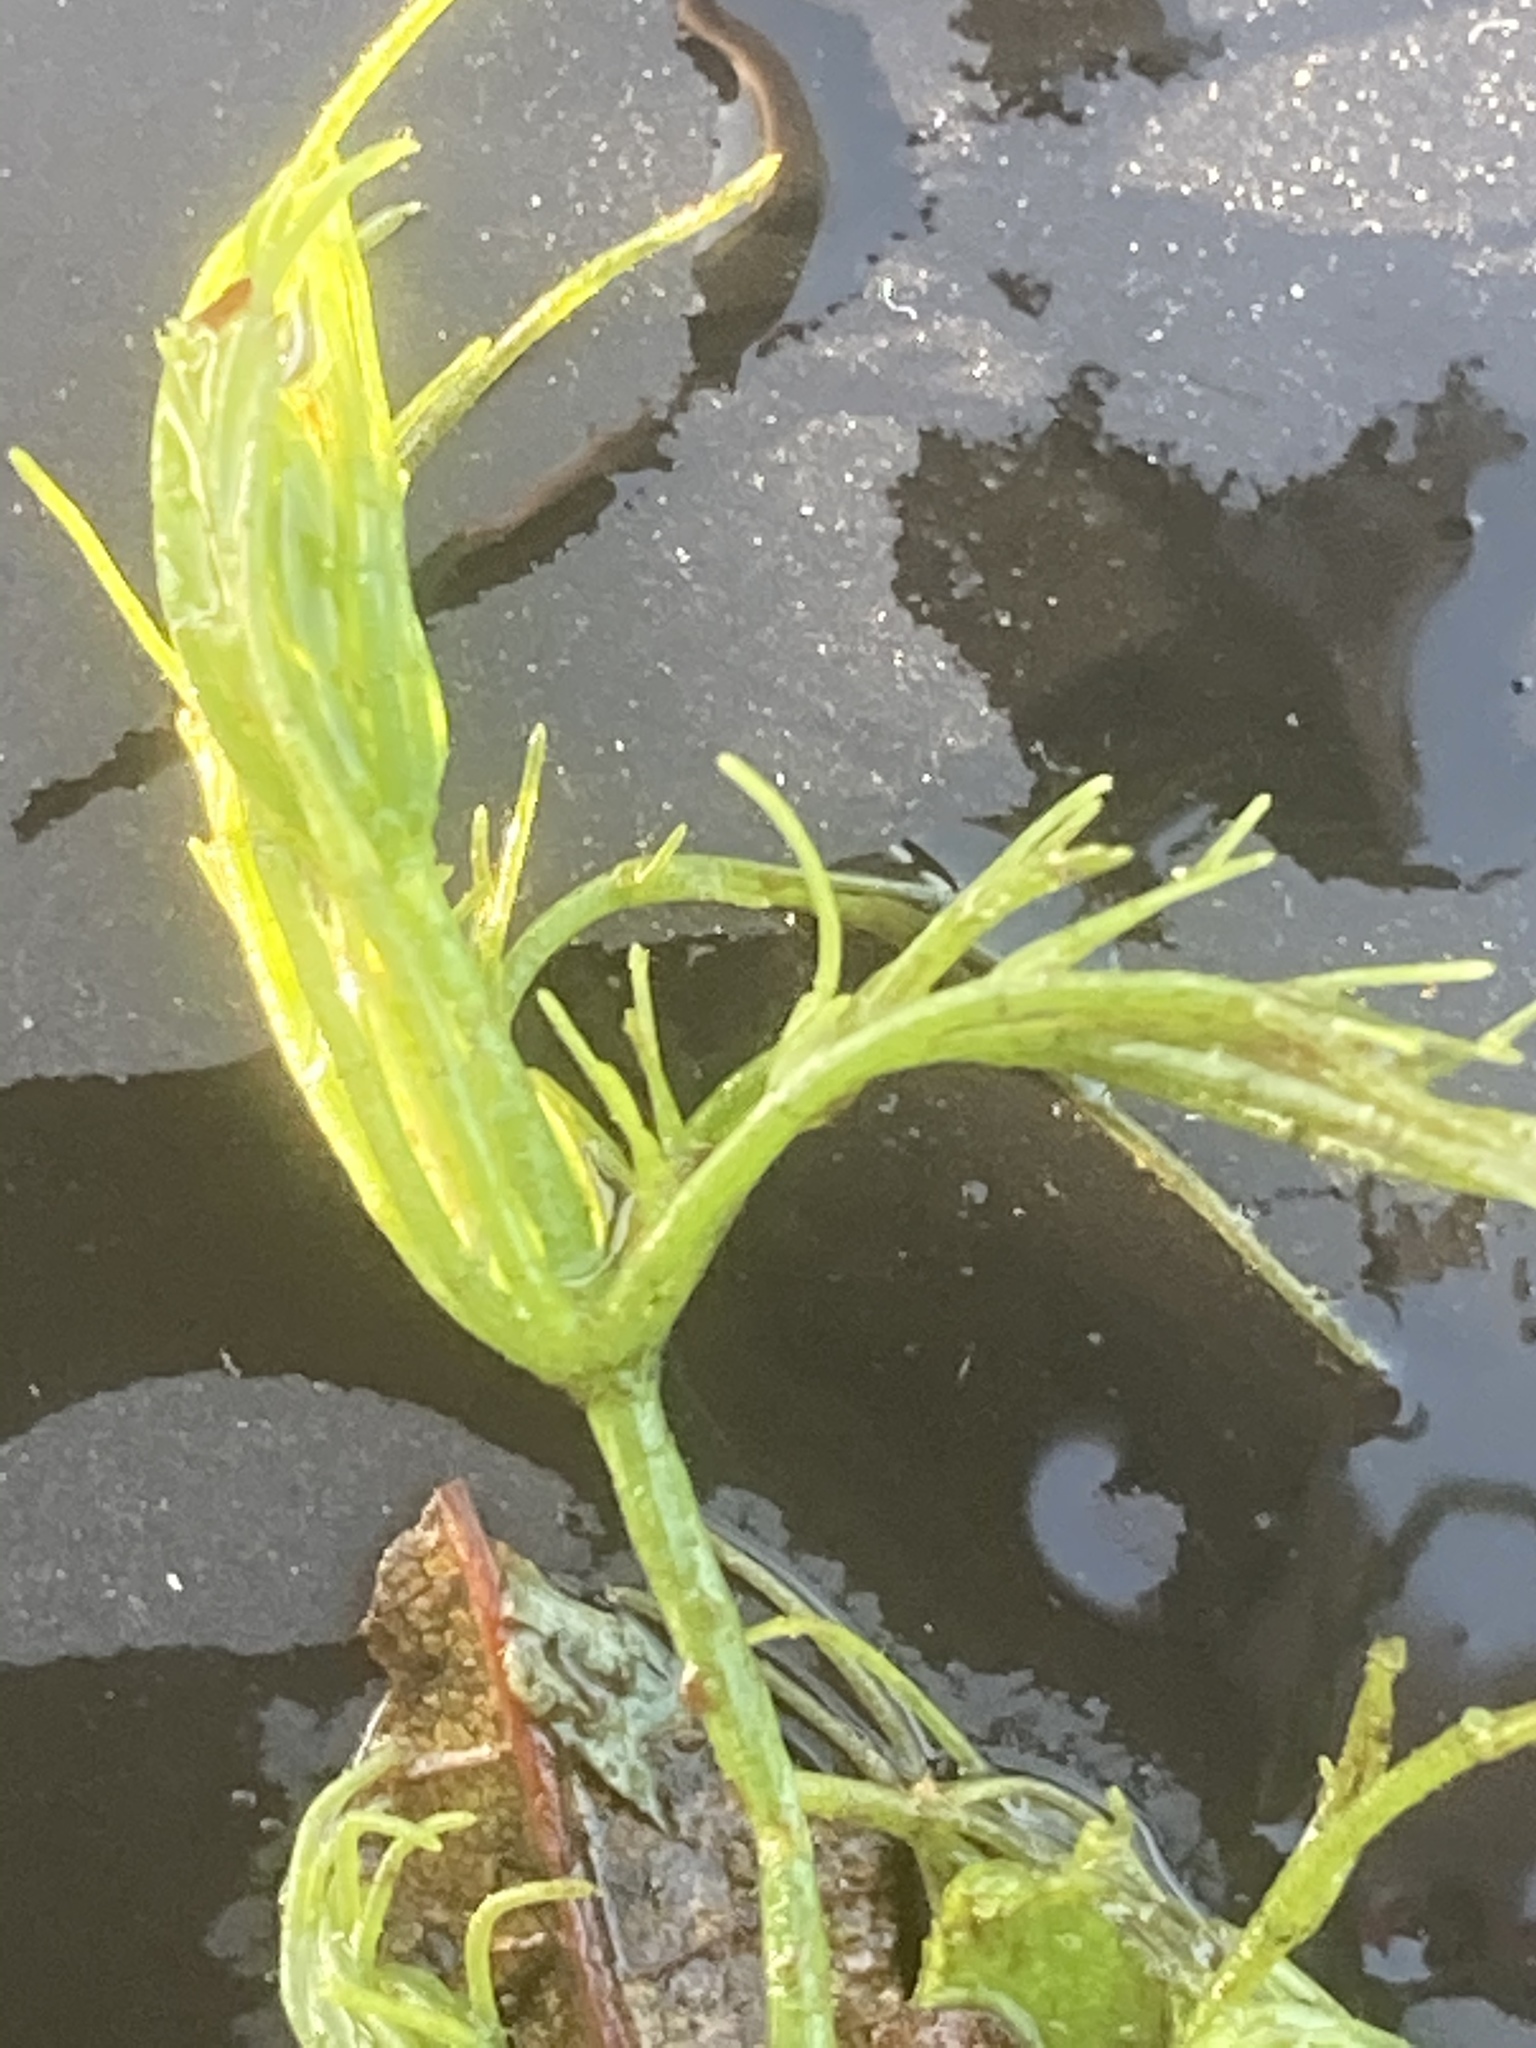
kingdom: Plantae
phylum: Charophyta
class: Charophyceae
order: Charales
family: Characeae
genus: Chara
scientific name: Chara vulgaris
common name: Common stonewort
